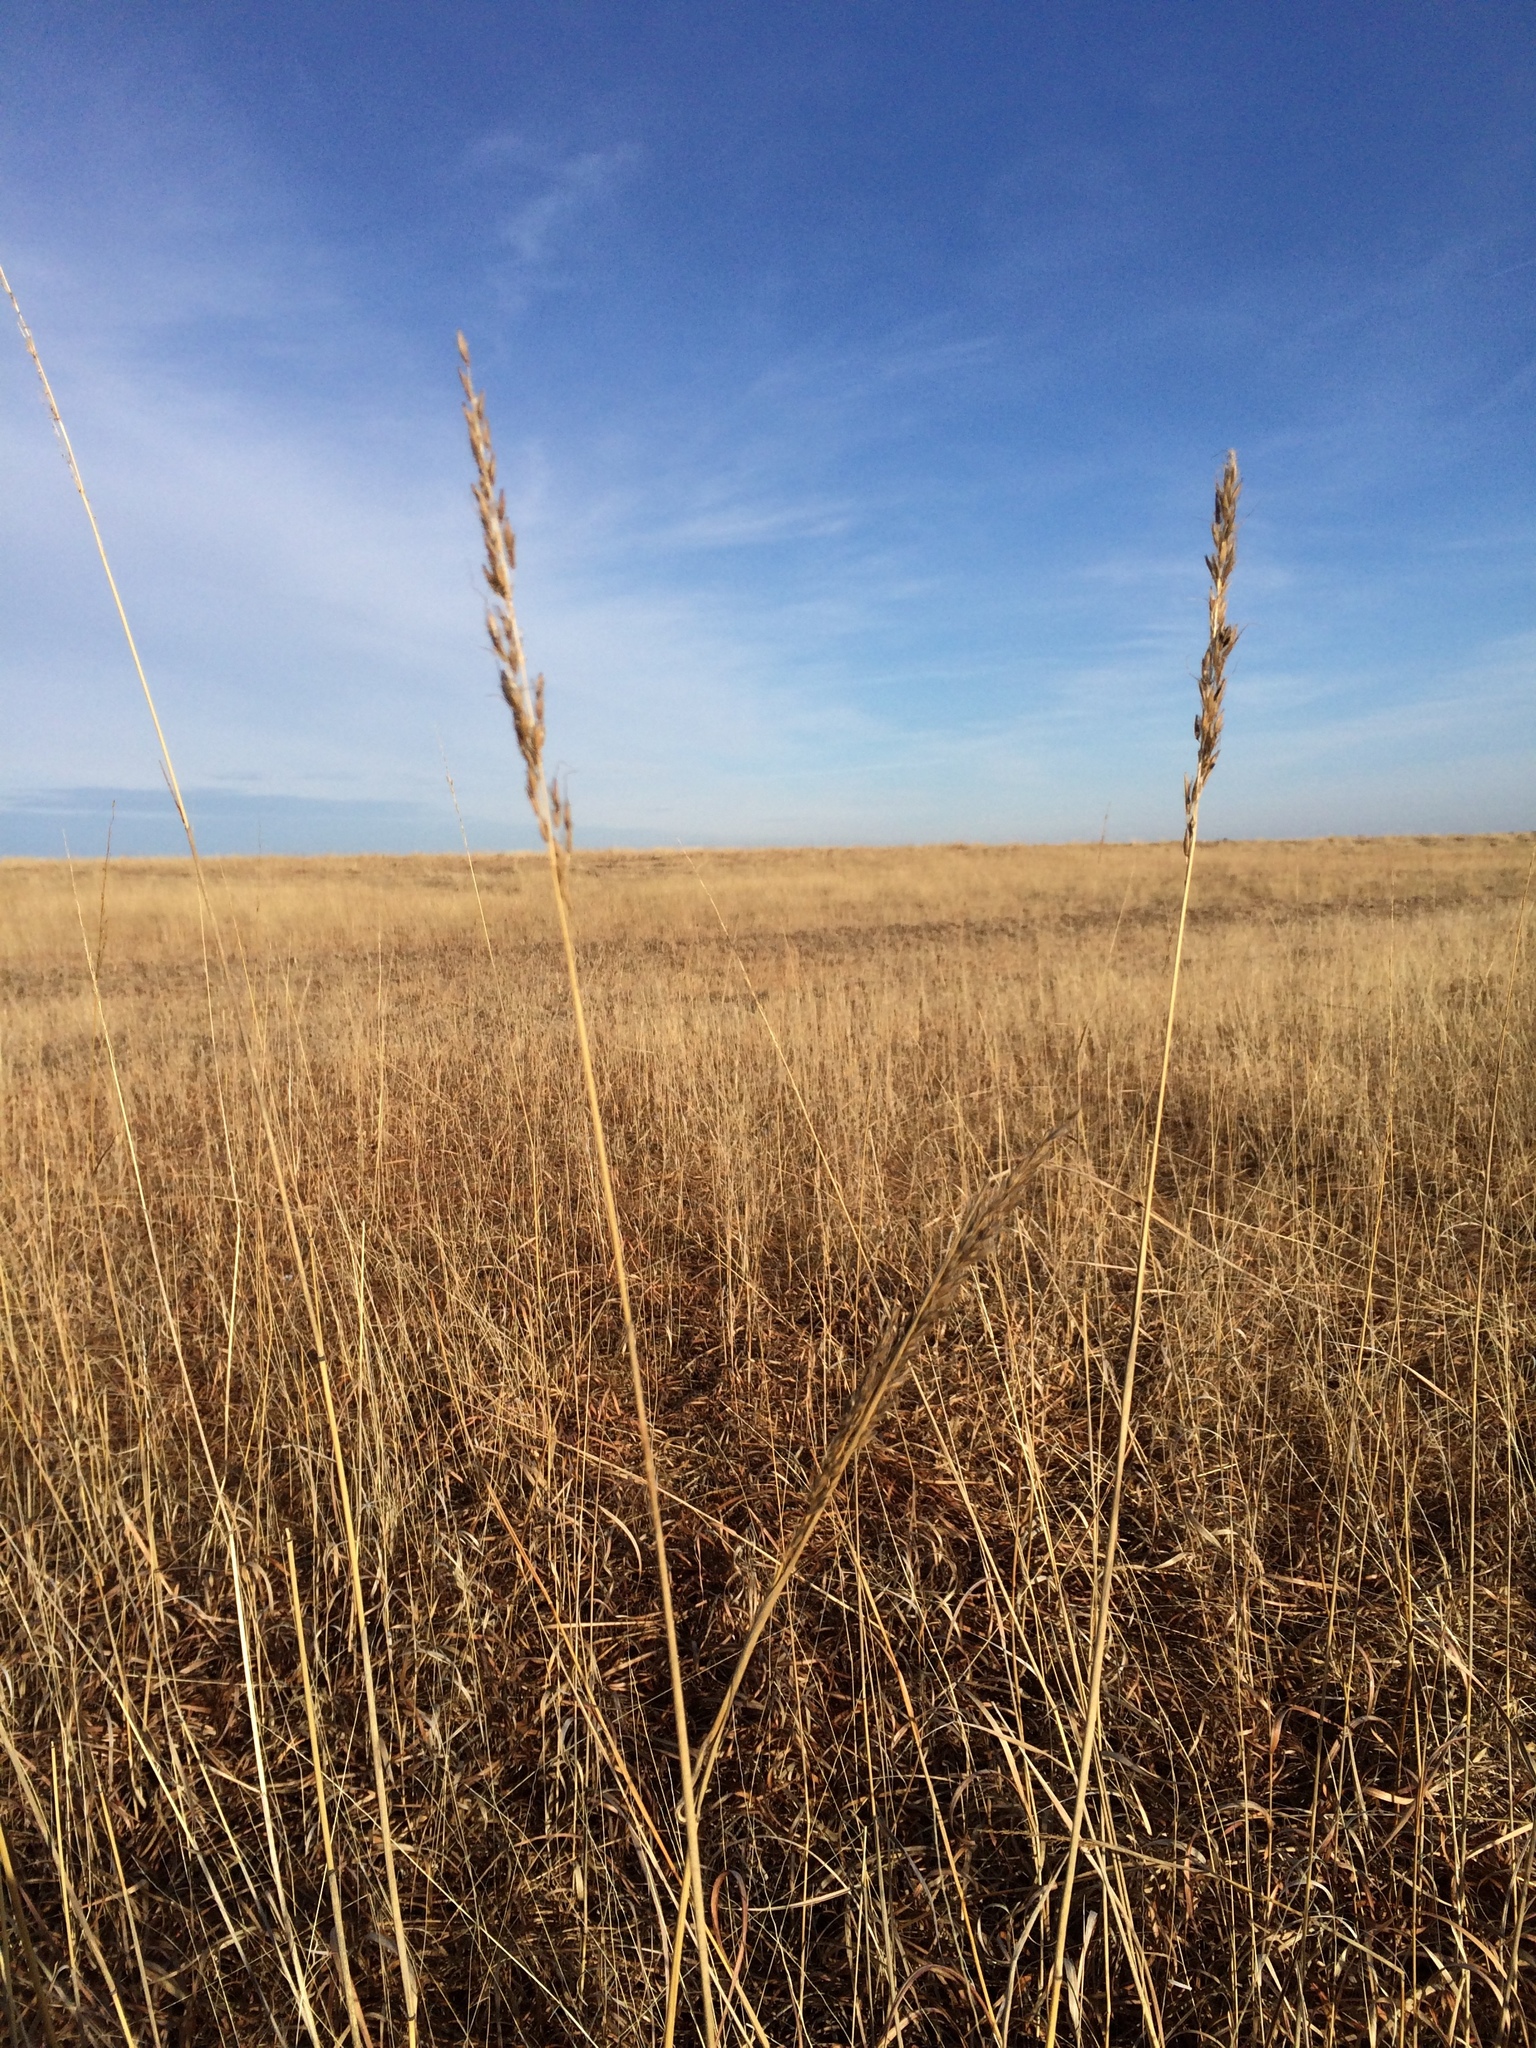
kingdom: Plantae
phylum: Tracheophyta
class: Liliopsida
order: Poales
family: Poaceae
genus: Sorghastrum
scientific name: Sorghastrum nutans
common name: Indian grass
